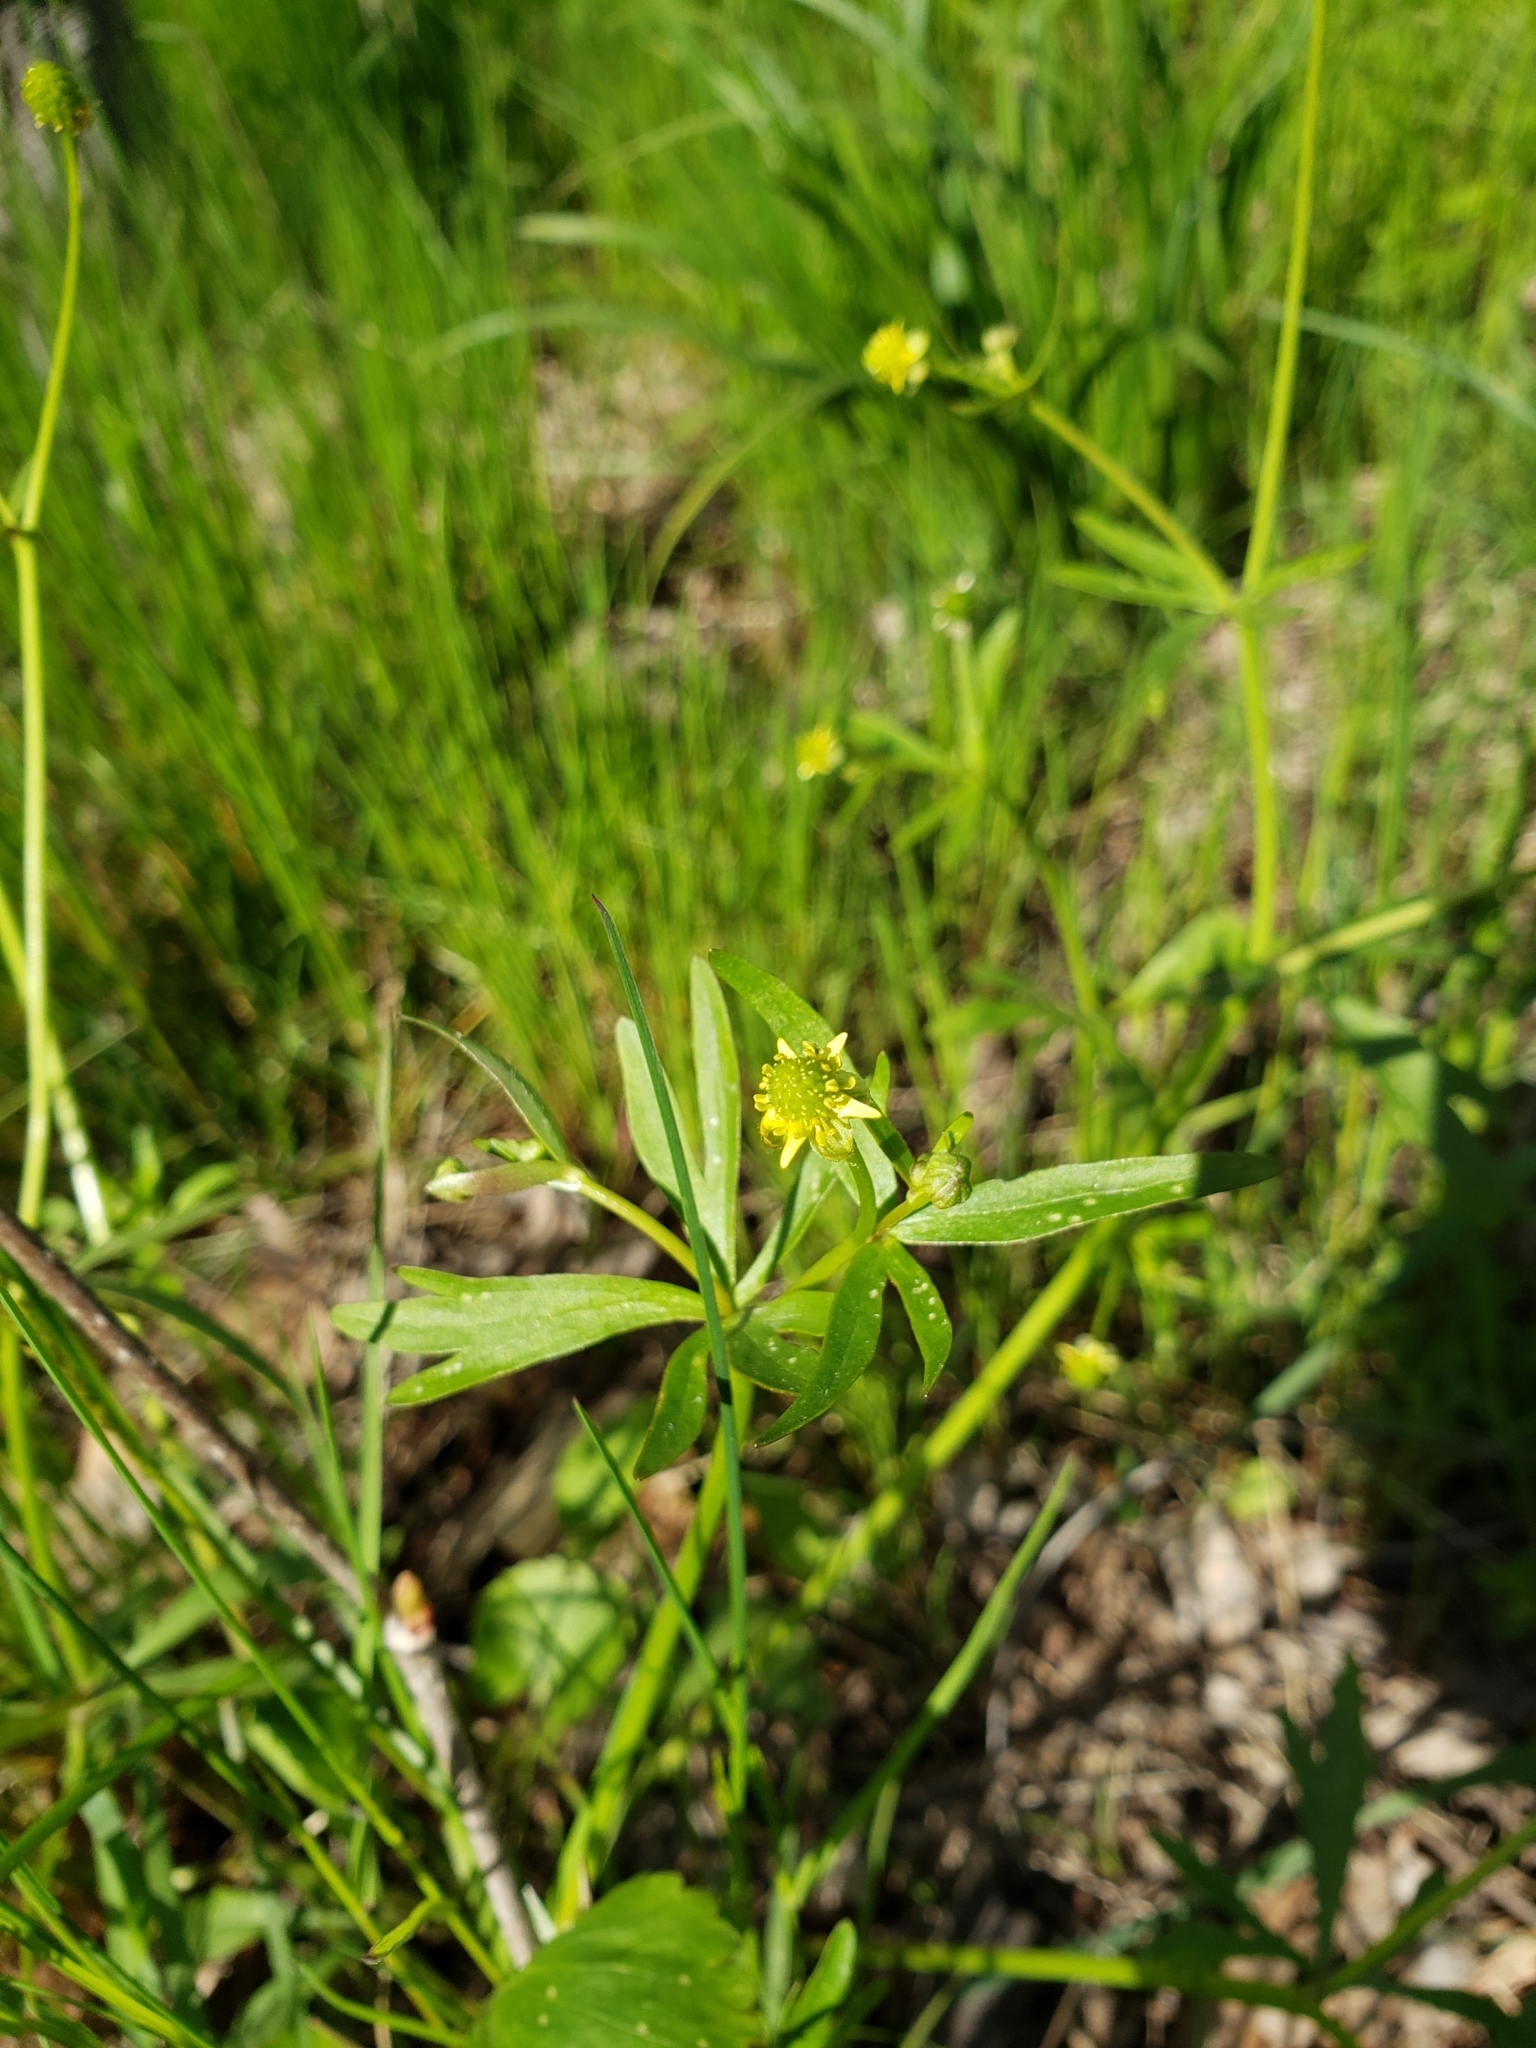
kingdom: Plantae
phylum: Tracheophyta
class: Magnoliopsida
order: Ranunculales
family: Ranunculaceae
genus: Ranunculus
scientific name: Ranunculus abortivus
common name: Early wood buttercup
